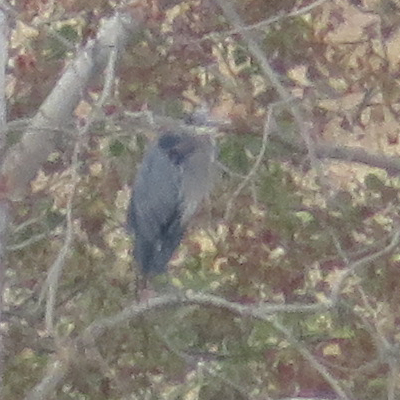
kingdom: Animalia
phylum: Chordata
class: Aves
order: Pelecaniformes
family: Ardeidae
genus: Ardea
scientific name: Ardea herodias
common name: Great blue heron
